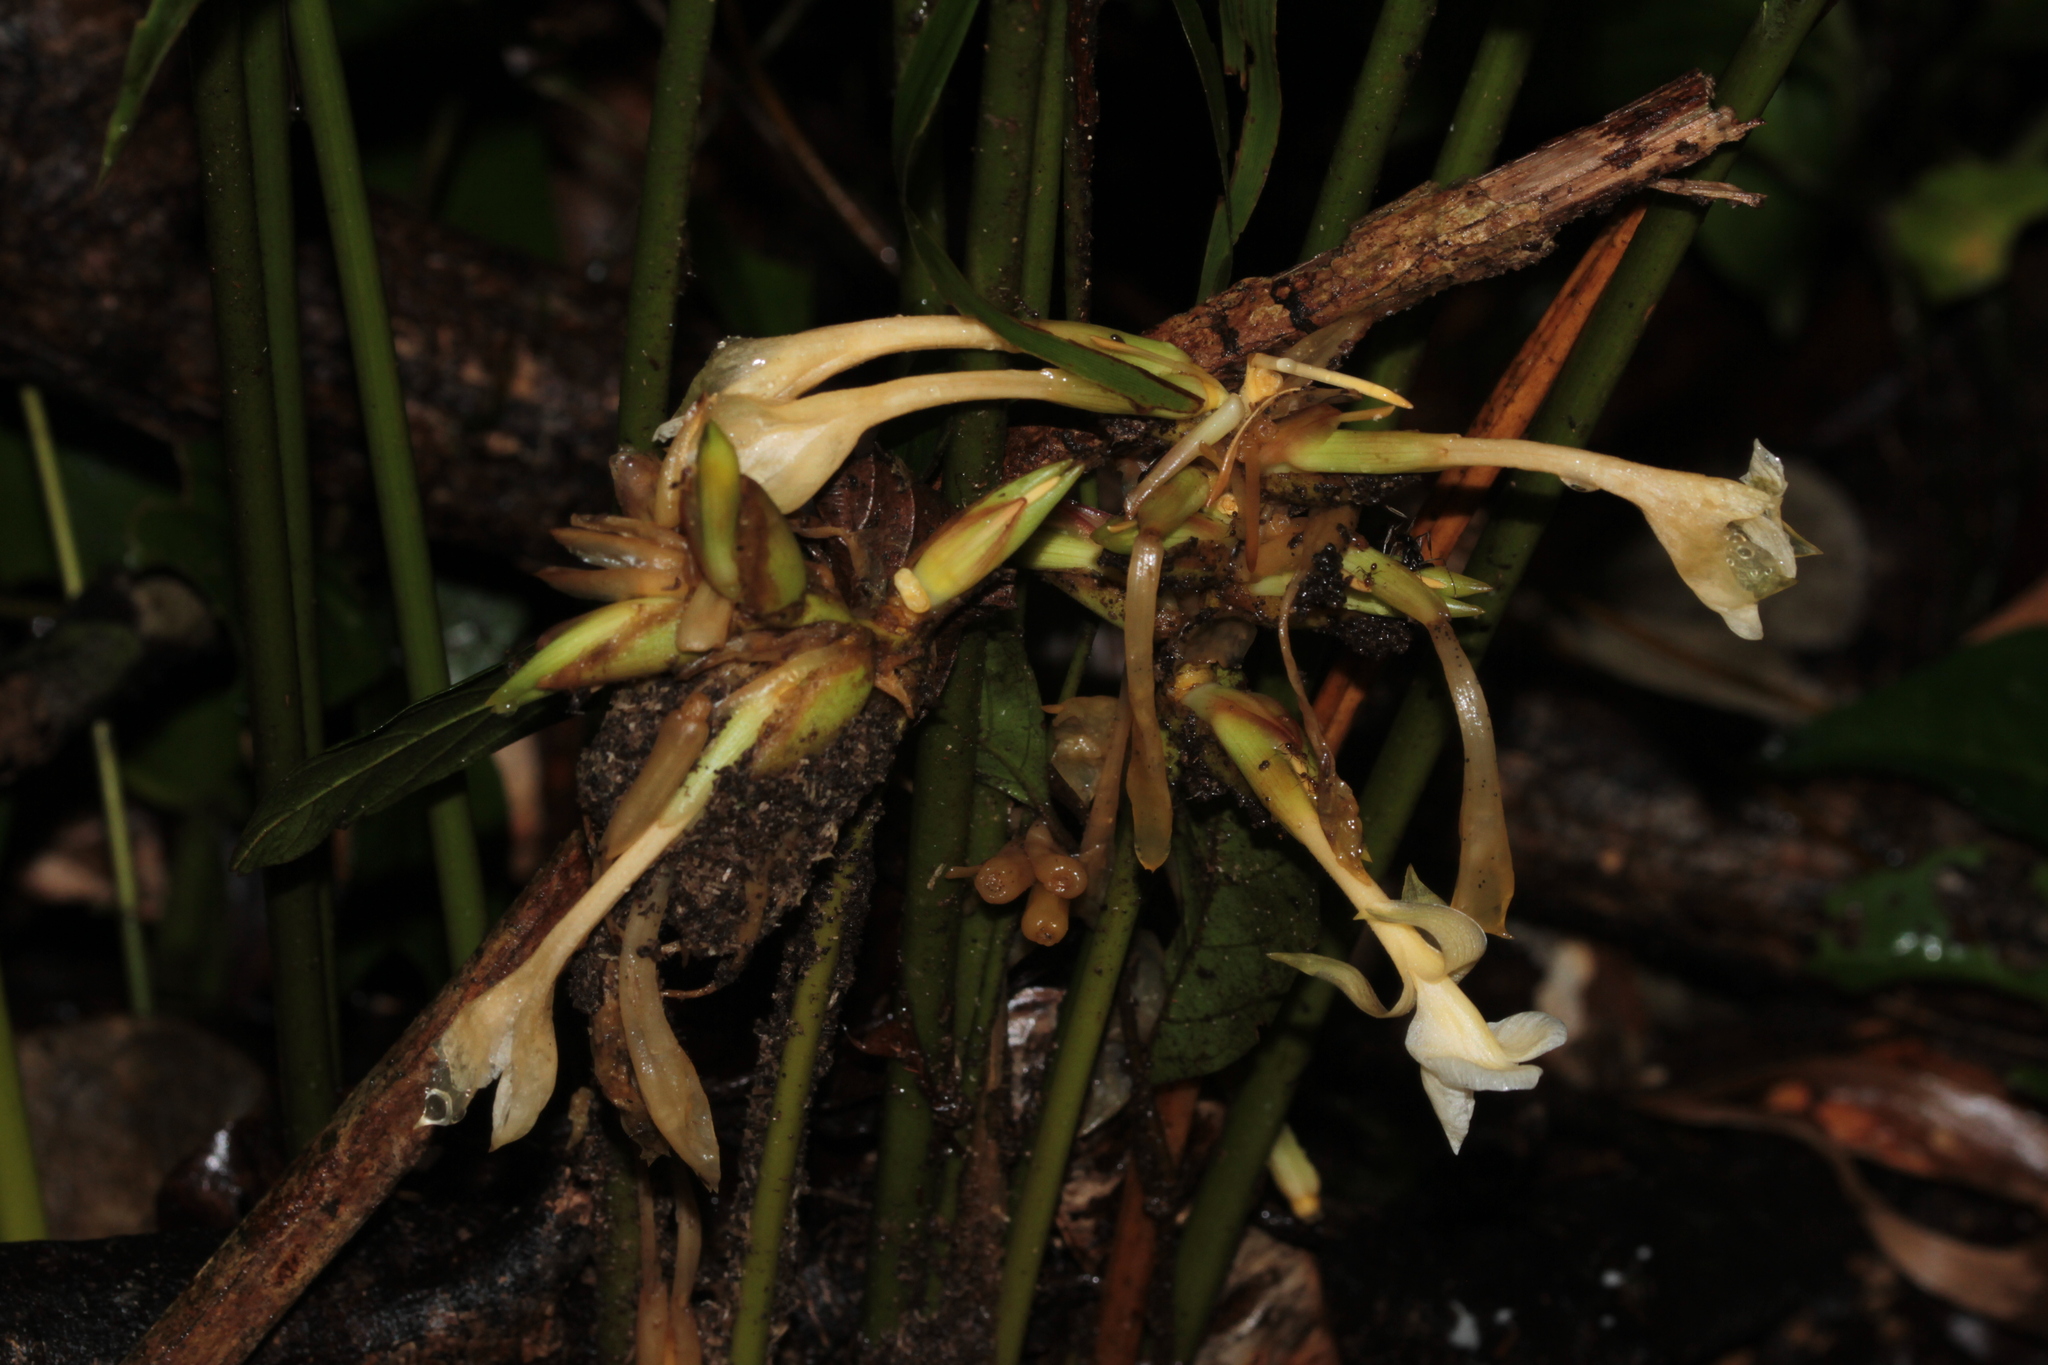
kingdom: Plantae
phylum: Tracheophyta
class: Liliopsida
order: Zingiberales
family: Marantaceae
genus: Goeppertia
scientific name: Goeppertia elliptica
